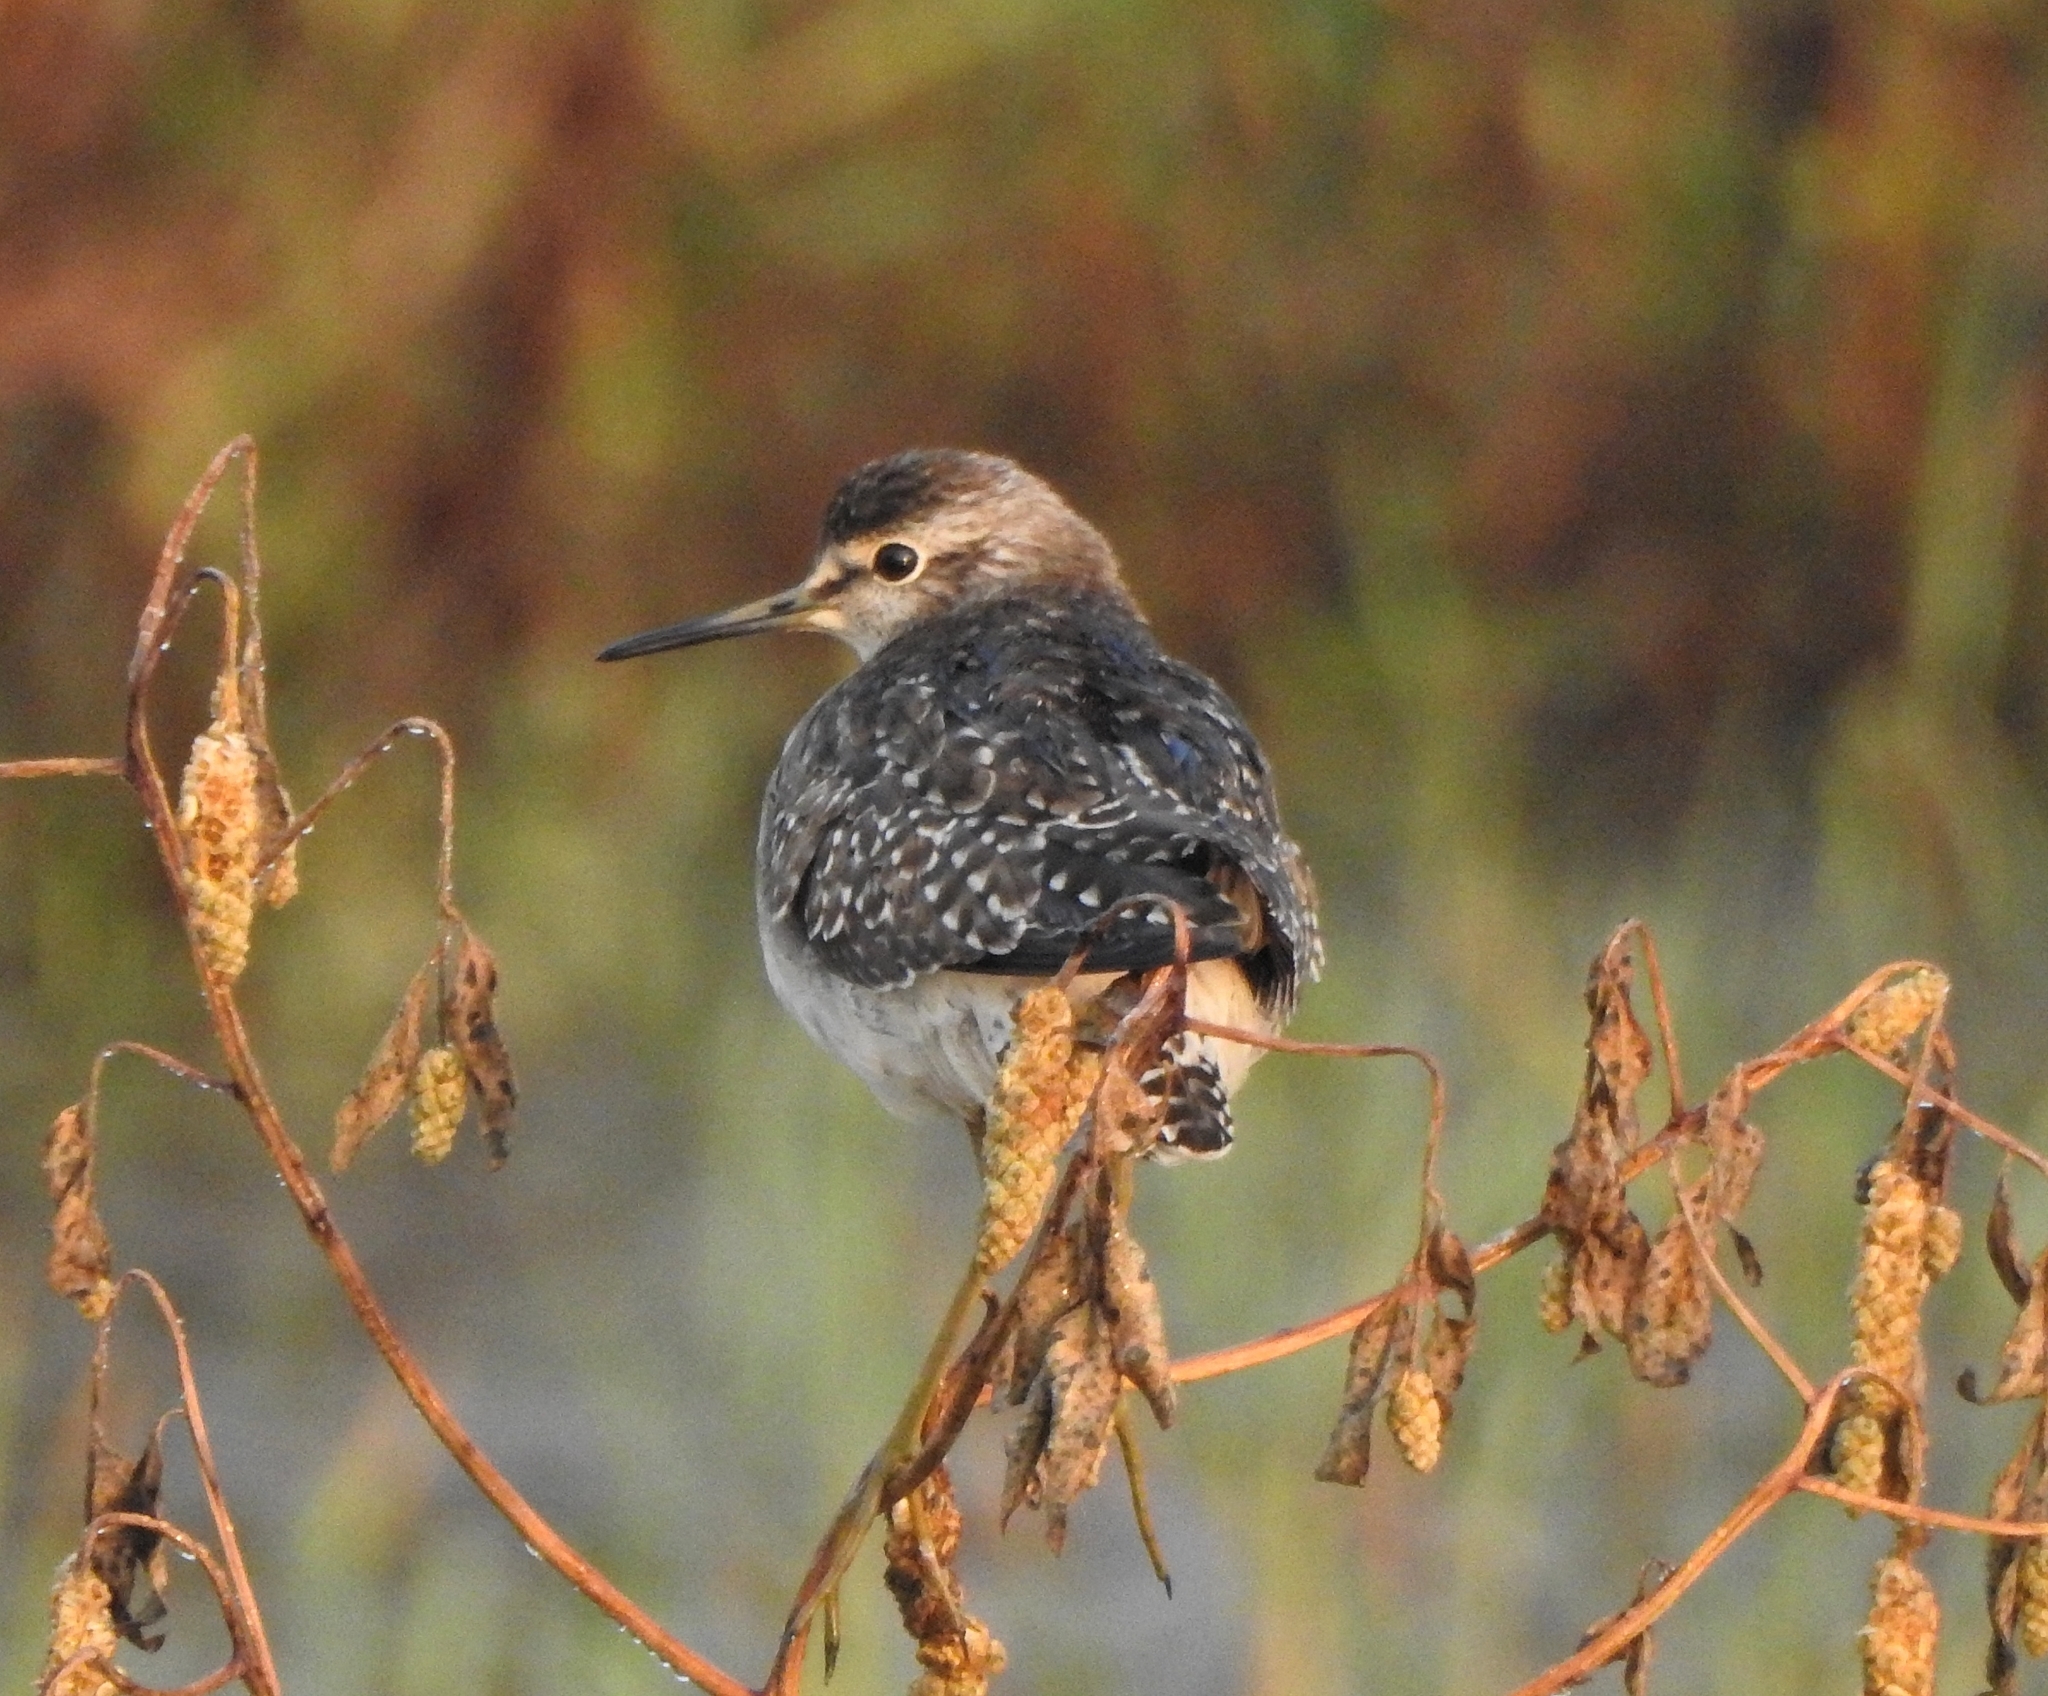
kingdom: Animalia
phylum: Chordata
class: Aves
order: Charadriiformes
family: Scolopacidae
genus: Tringa
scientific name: Tringa glareola
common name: Wood sandpiper
